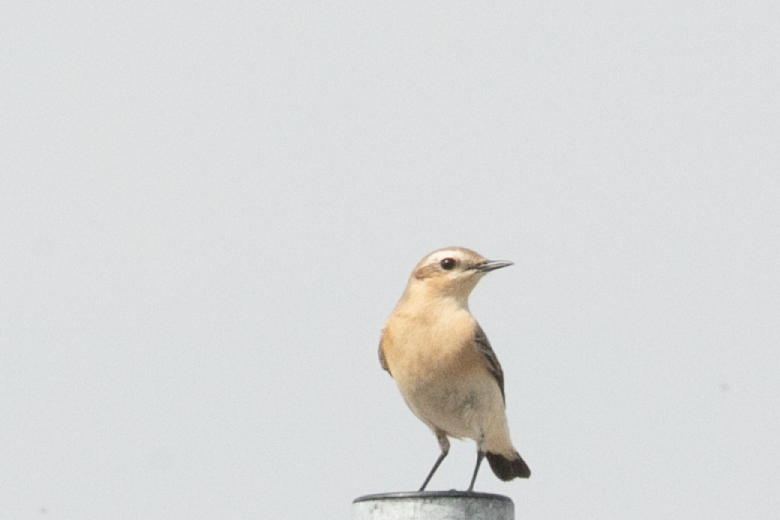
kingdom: Animalia
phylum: Chordata
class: Aves
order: Passeriformes
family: Muscicapidae
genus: Oenanthe
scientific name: Oenanthe oenanthe
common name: Northern wheatear
